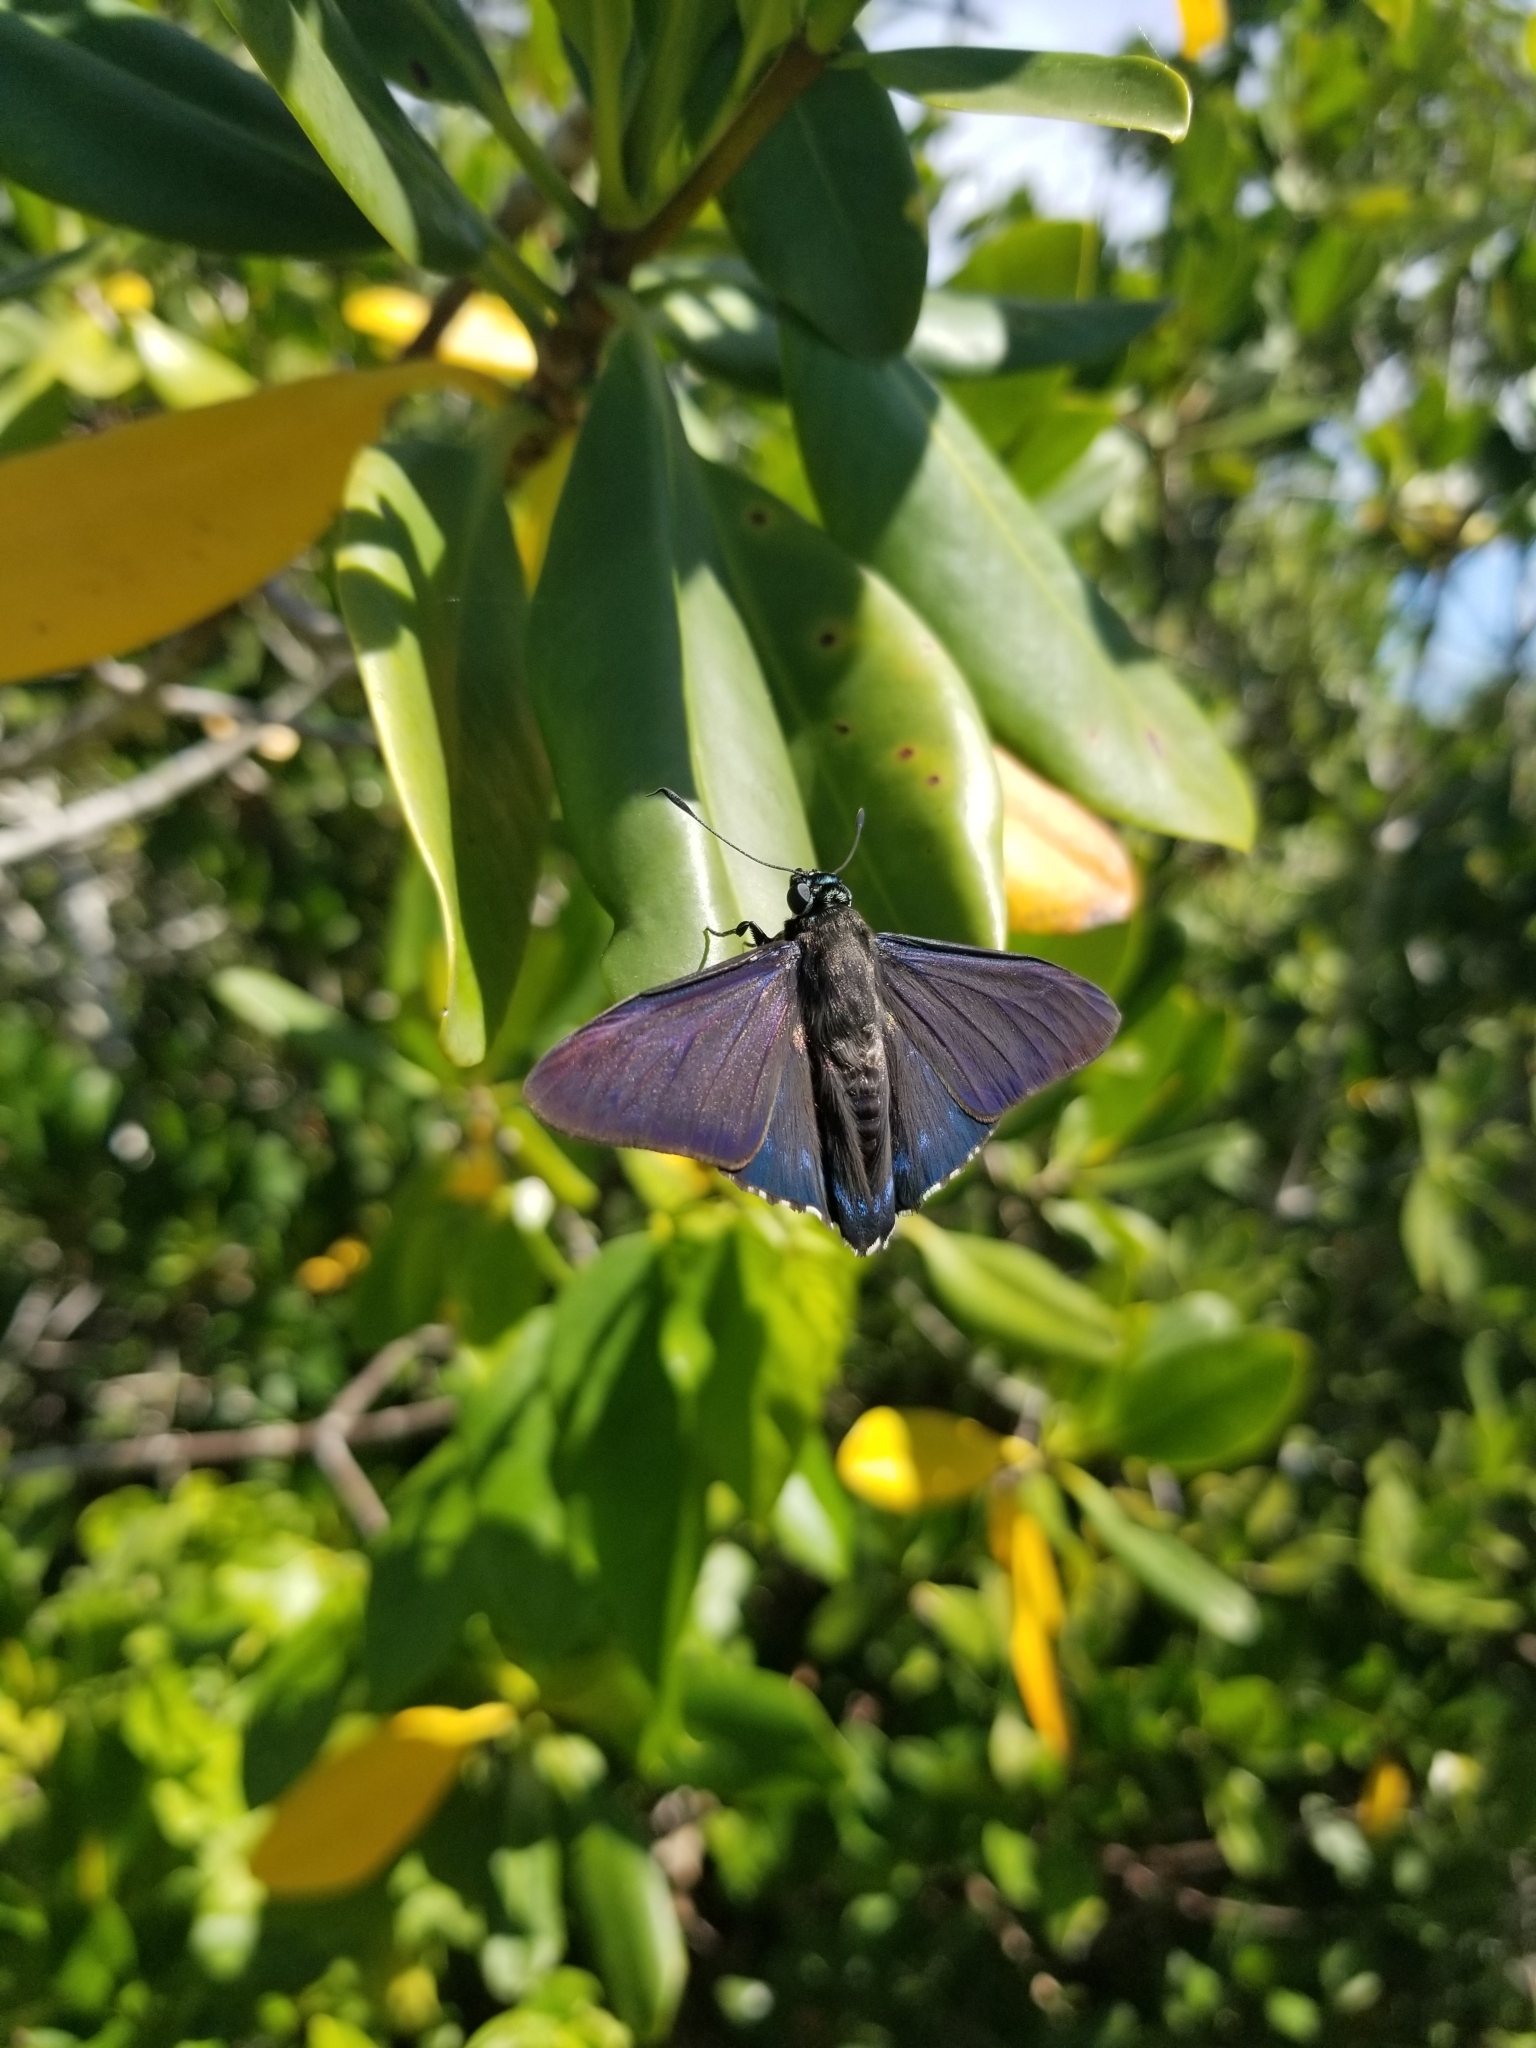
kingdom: Animalia
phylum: Arthropoda
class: Insecta
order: Lepidoptera
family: Hesperiidae
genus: Phocides
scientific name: Phocides pigmalion
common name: Mangrove skipper
